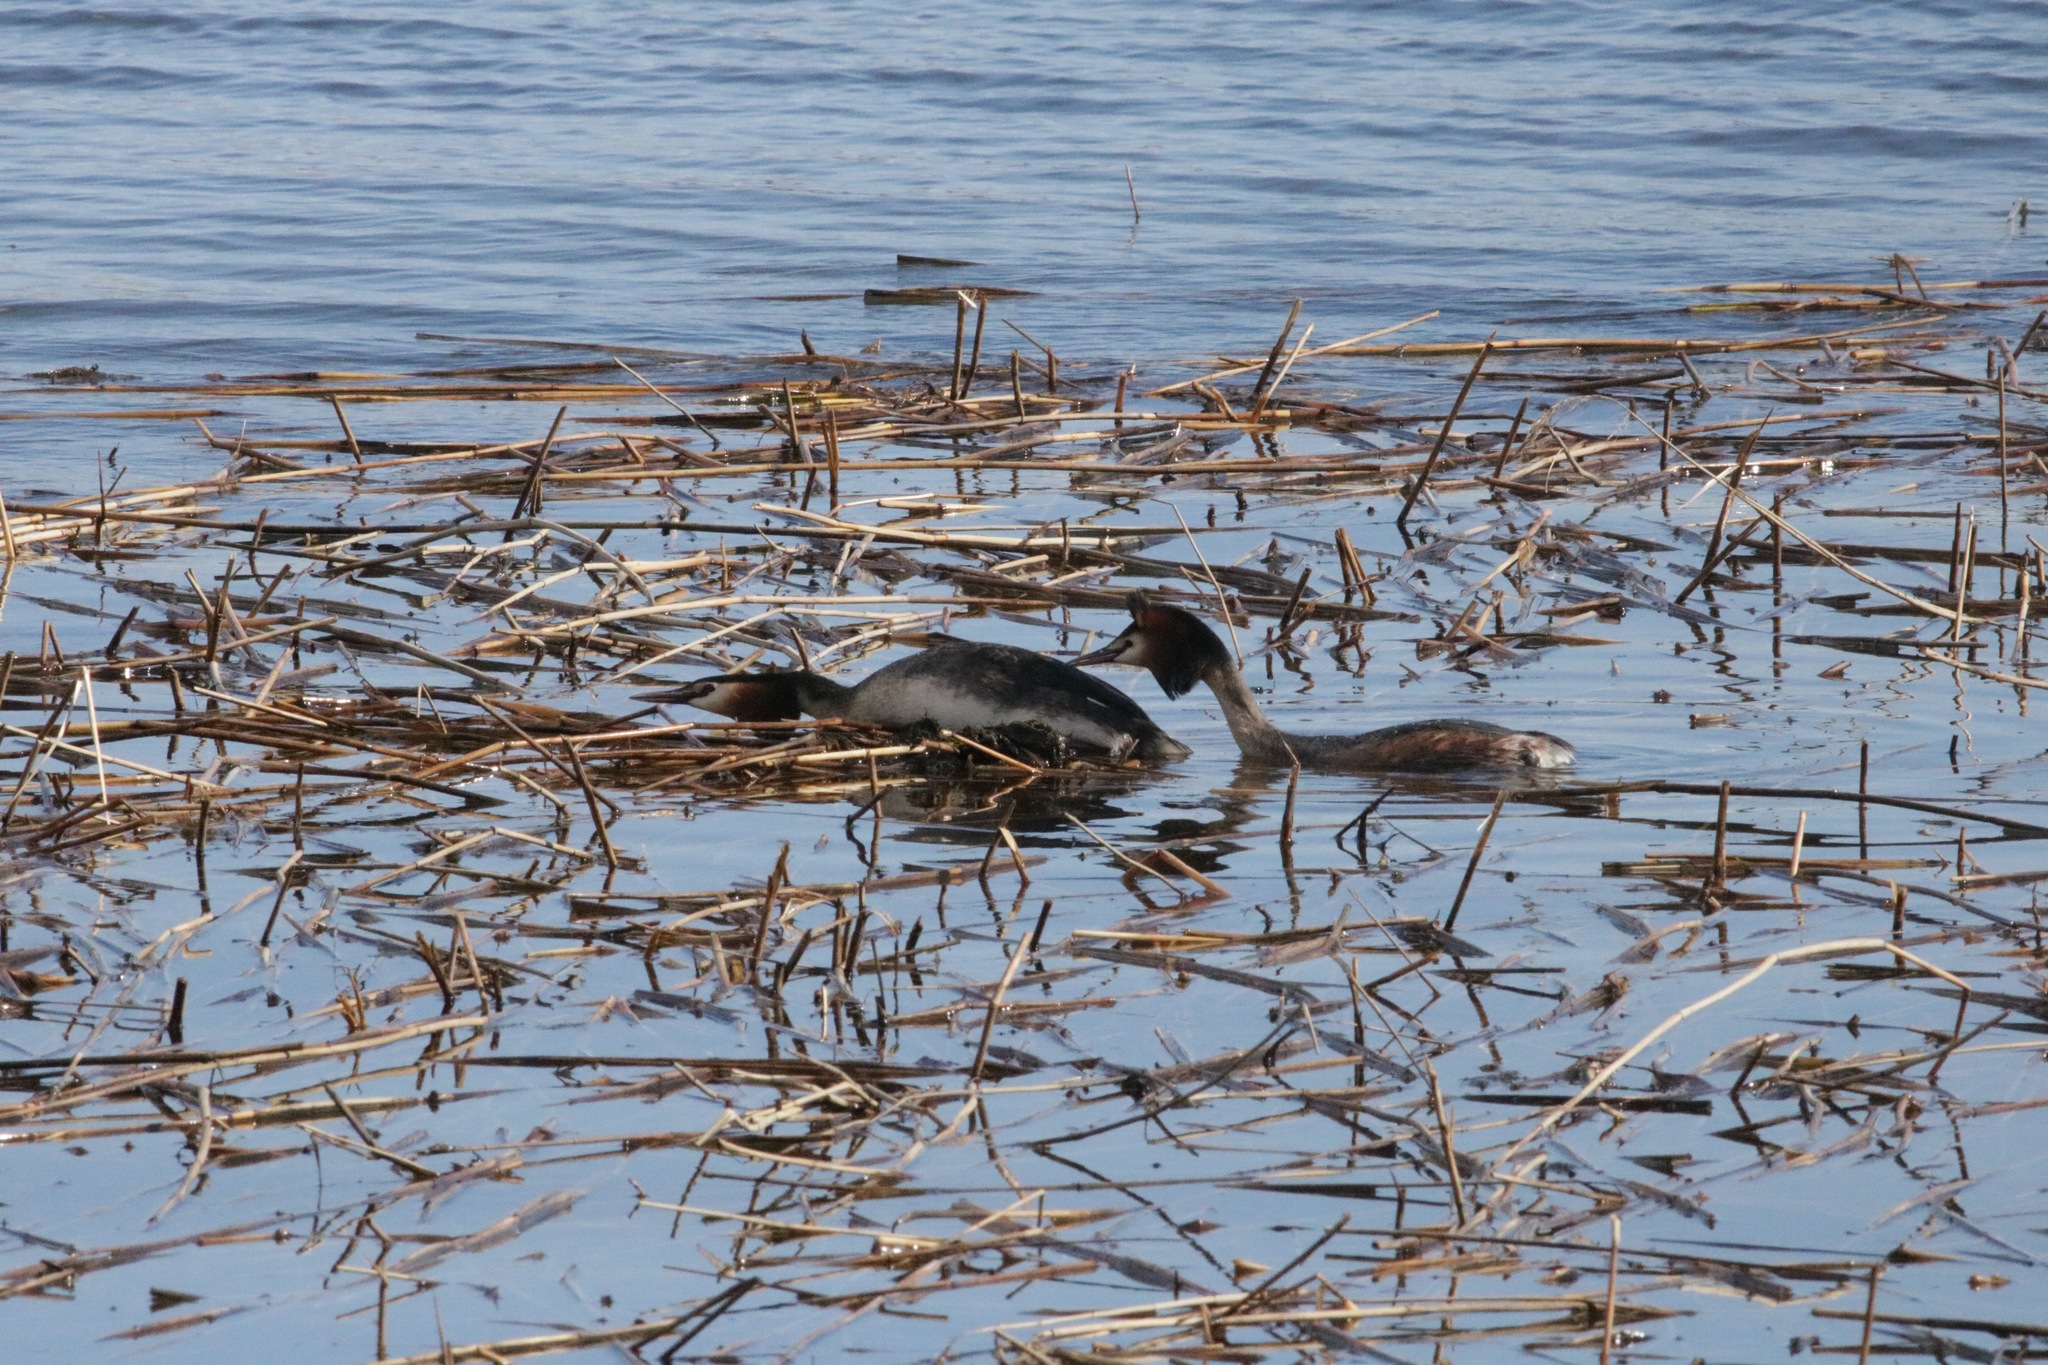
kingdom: Animalia
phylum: Chordata
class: Aves
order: Podicipediformes
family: Podicipedidae
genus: Podiceps
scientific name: Podiceps cristatus
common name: Great crested grebe
